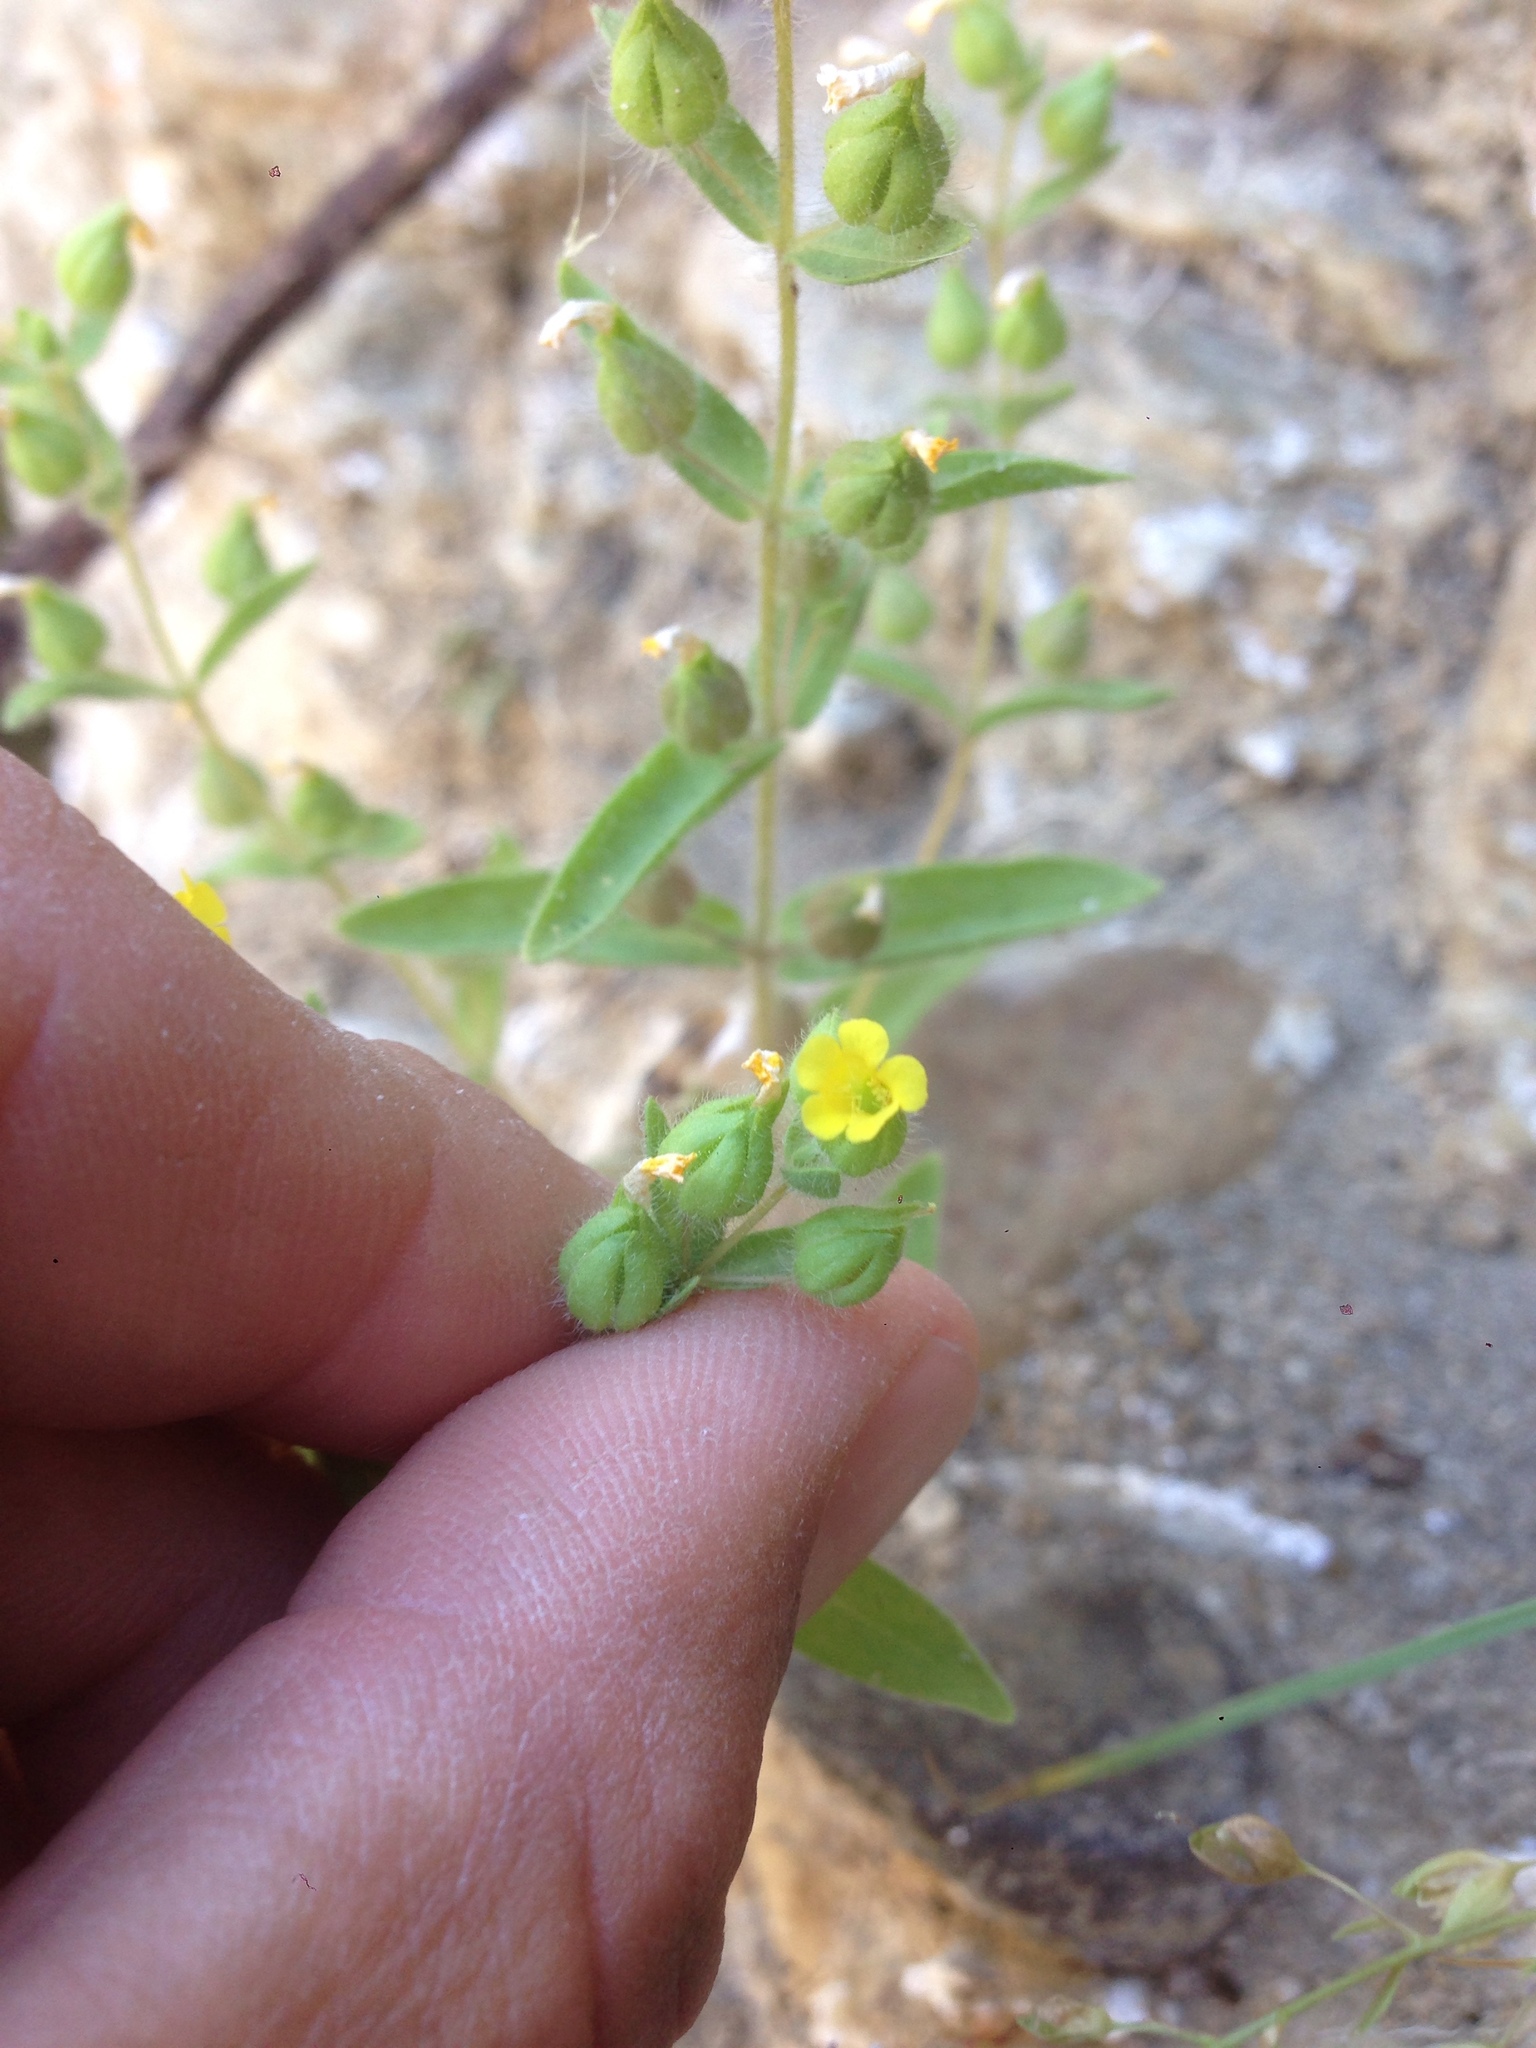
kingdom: Plantae
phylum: Tracheophyta
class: Magnoliopsida
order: Lamiales
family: Phrymaceae
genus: Mimetanthe
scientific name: Mimetanthe pilosa
